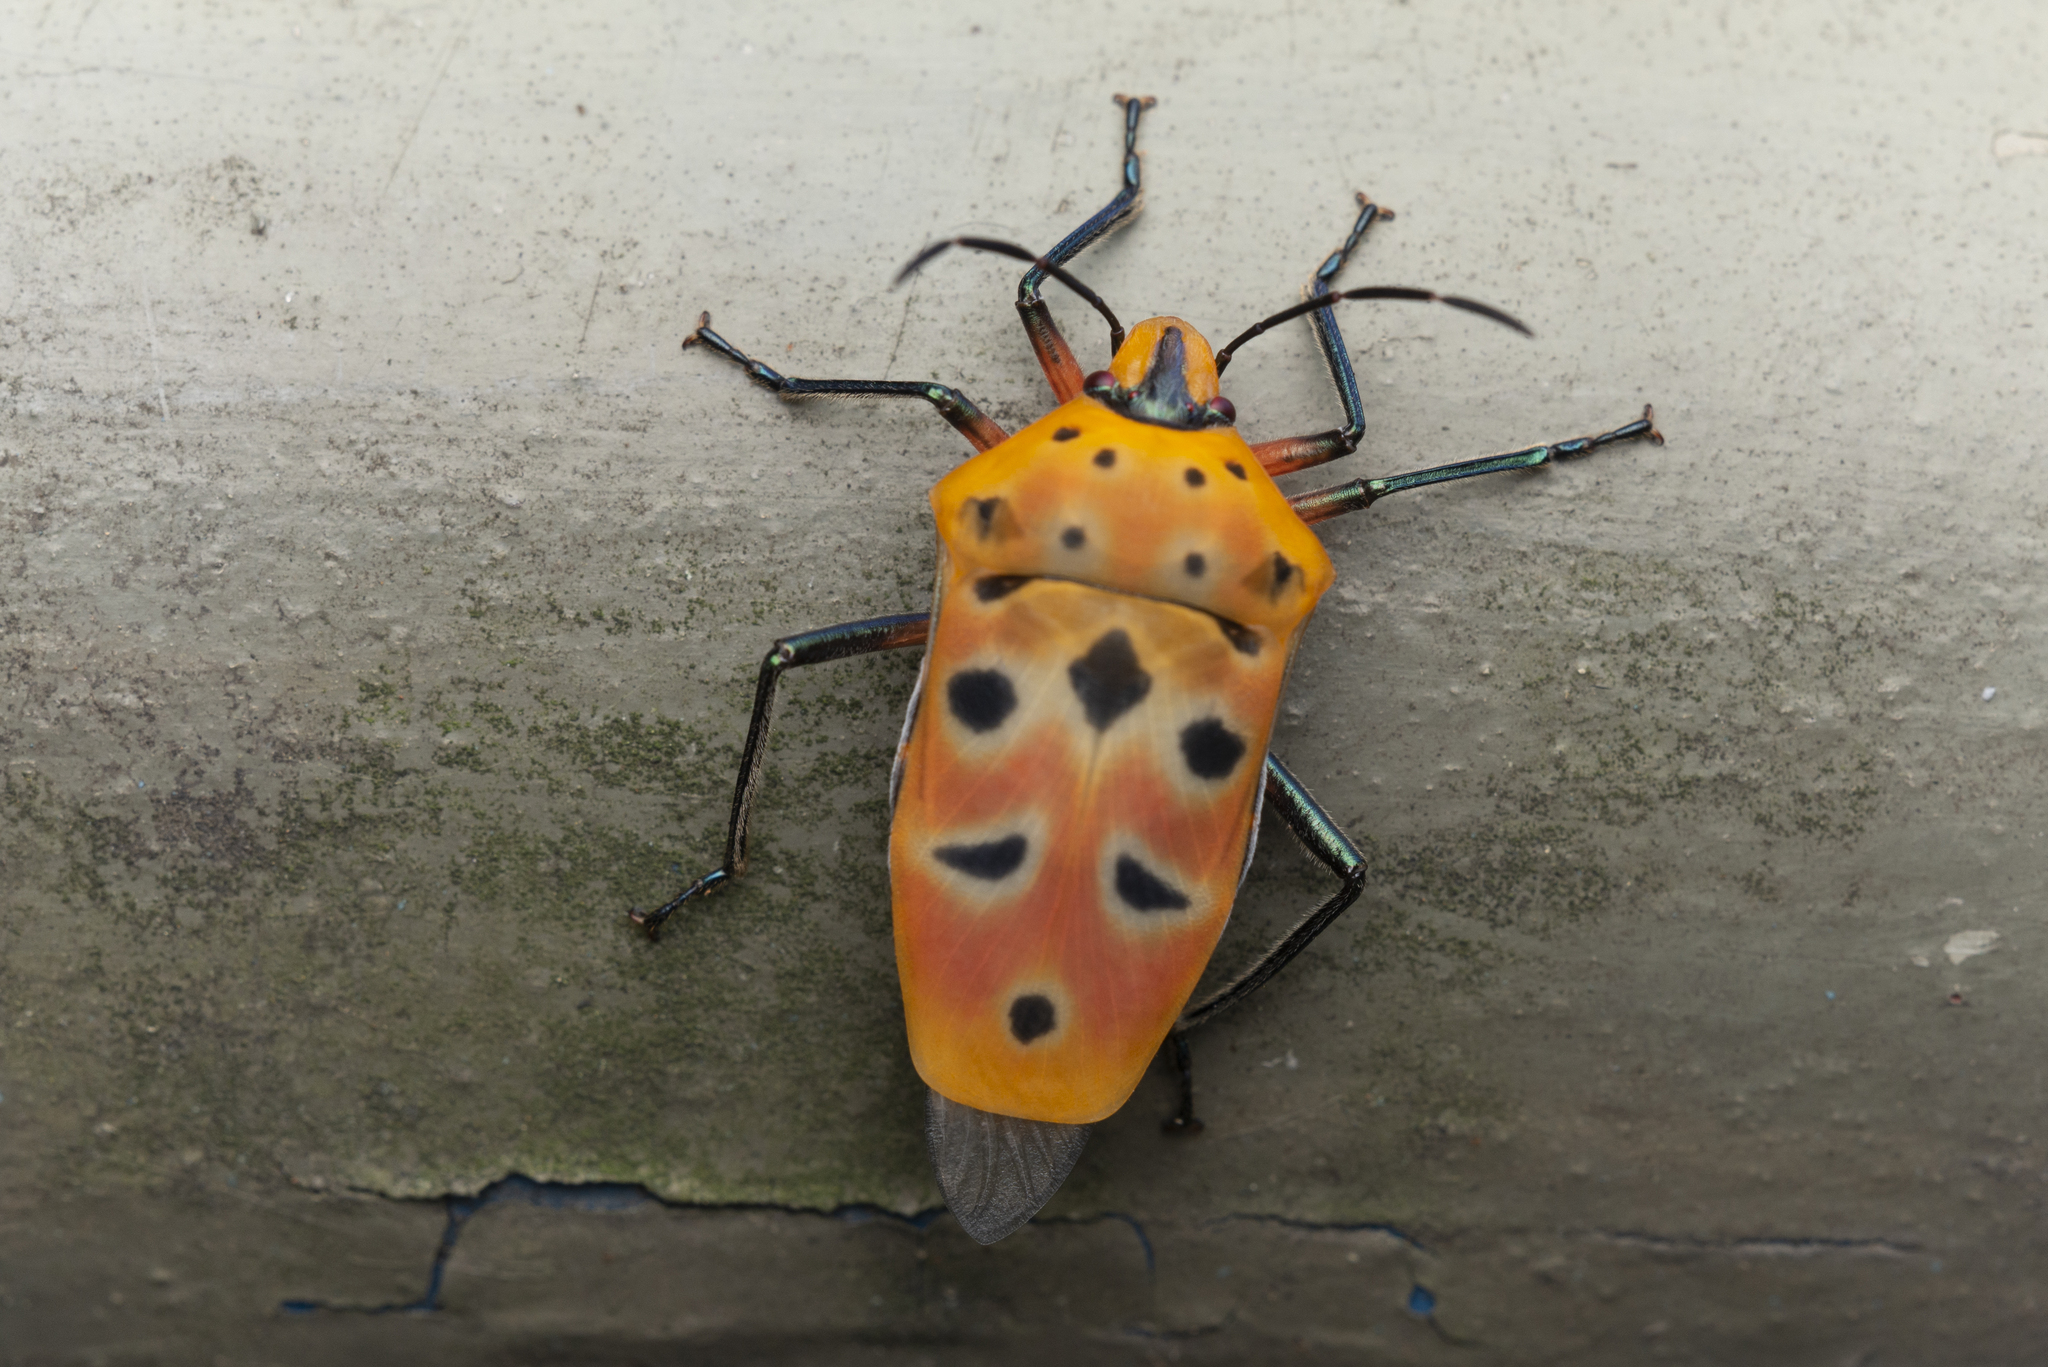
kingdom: Animalia
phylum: Arthropoda
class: Insecta
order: Hemiptera
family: Scutelleridae
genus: Cantao
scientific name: Cantao ocellatus
